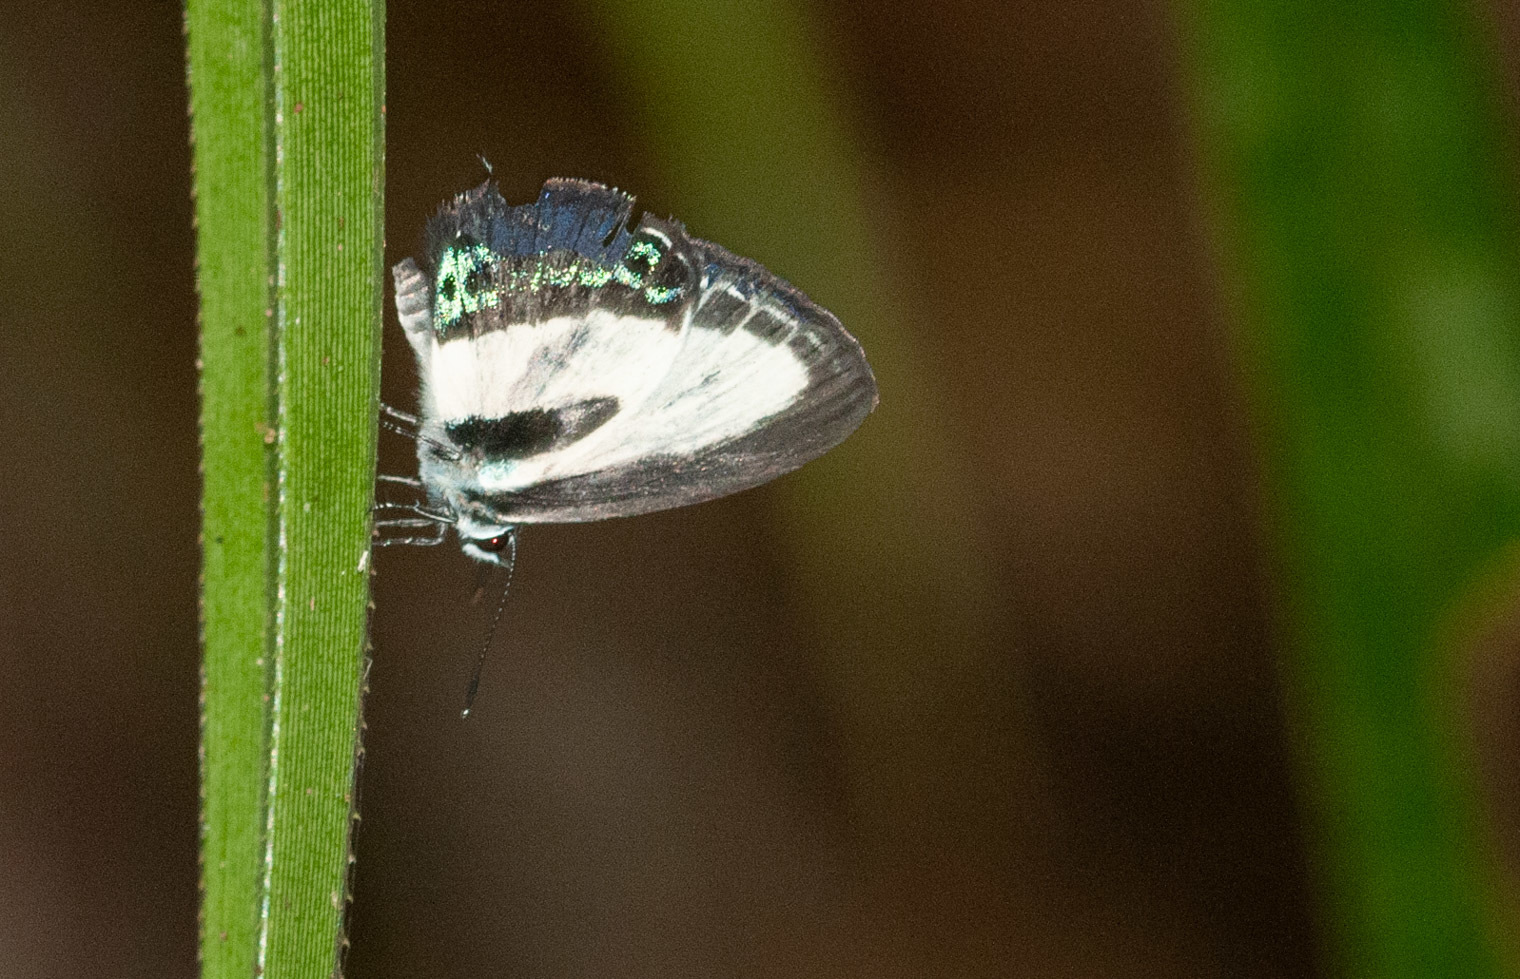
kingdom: Animalia
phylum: Arthropoda
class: Insecta
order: Lepidoptera
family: Lycaenidae
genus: Nacaduba
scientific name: Nacaduba cyanea
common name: Tailed green-banded line blue
